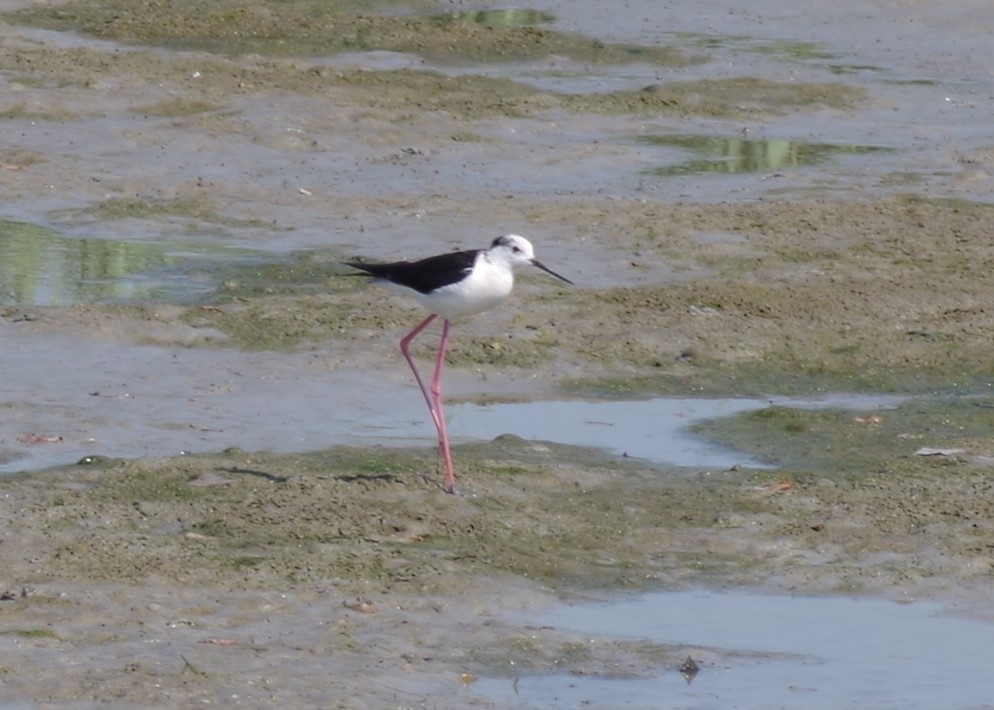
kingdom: Animalia
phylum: Chordata
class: Aves
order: Charadriiformes
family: Recurvirostridae
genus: Himantopus
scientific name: Himantopus himantopus
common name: Black-winged stilt
